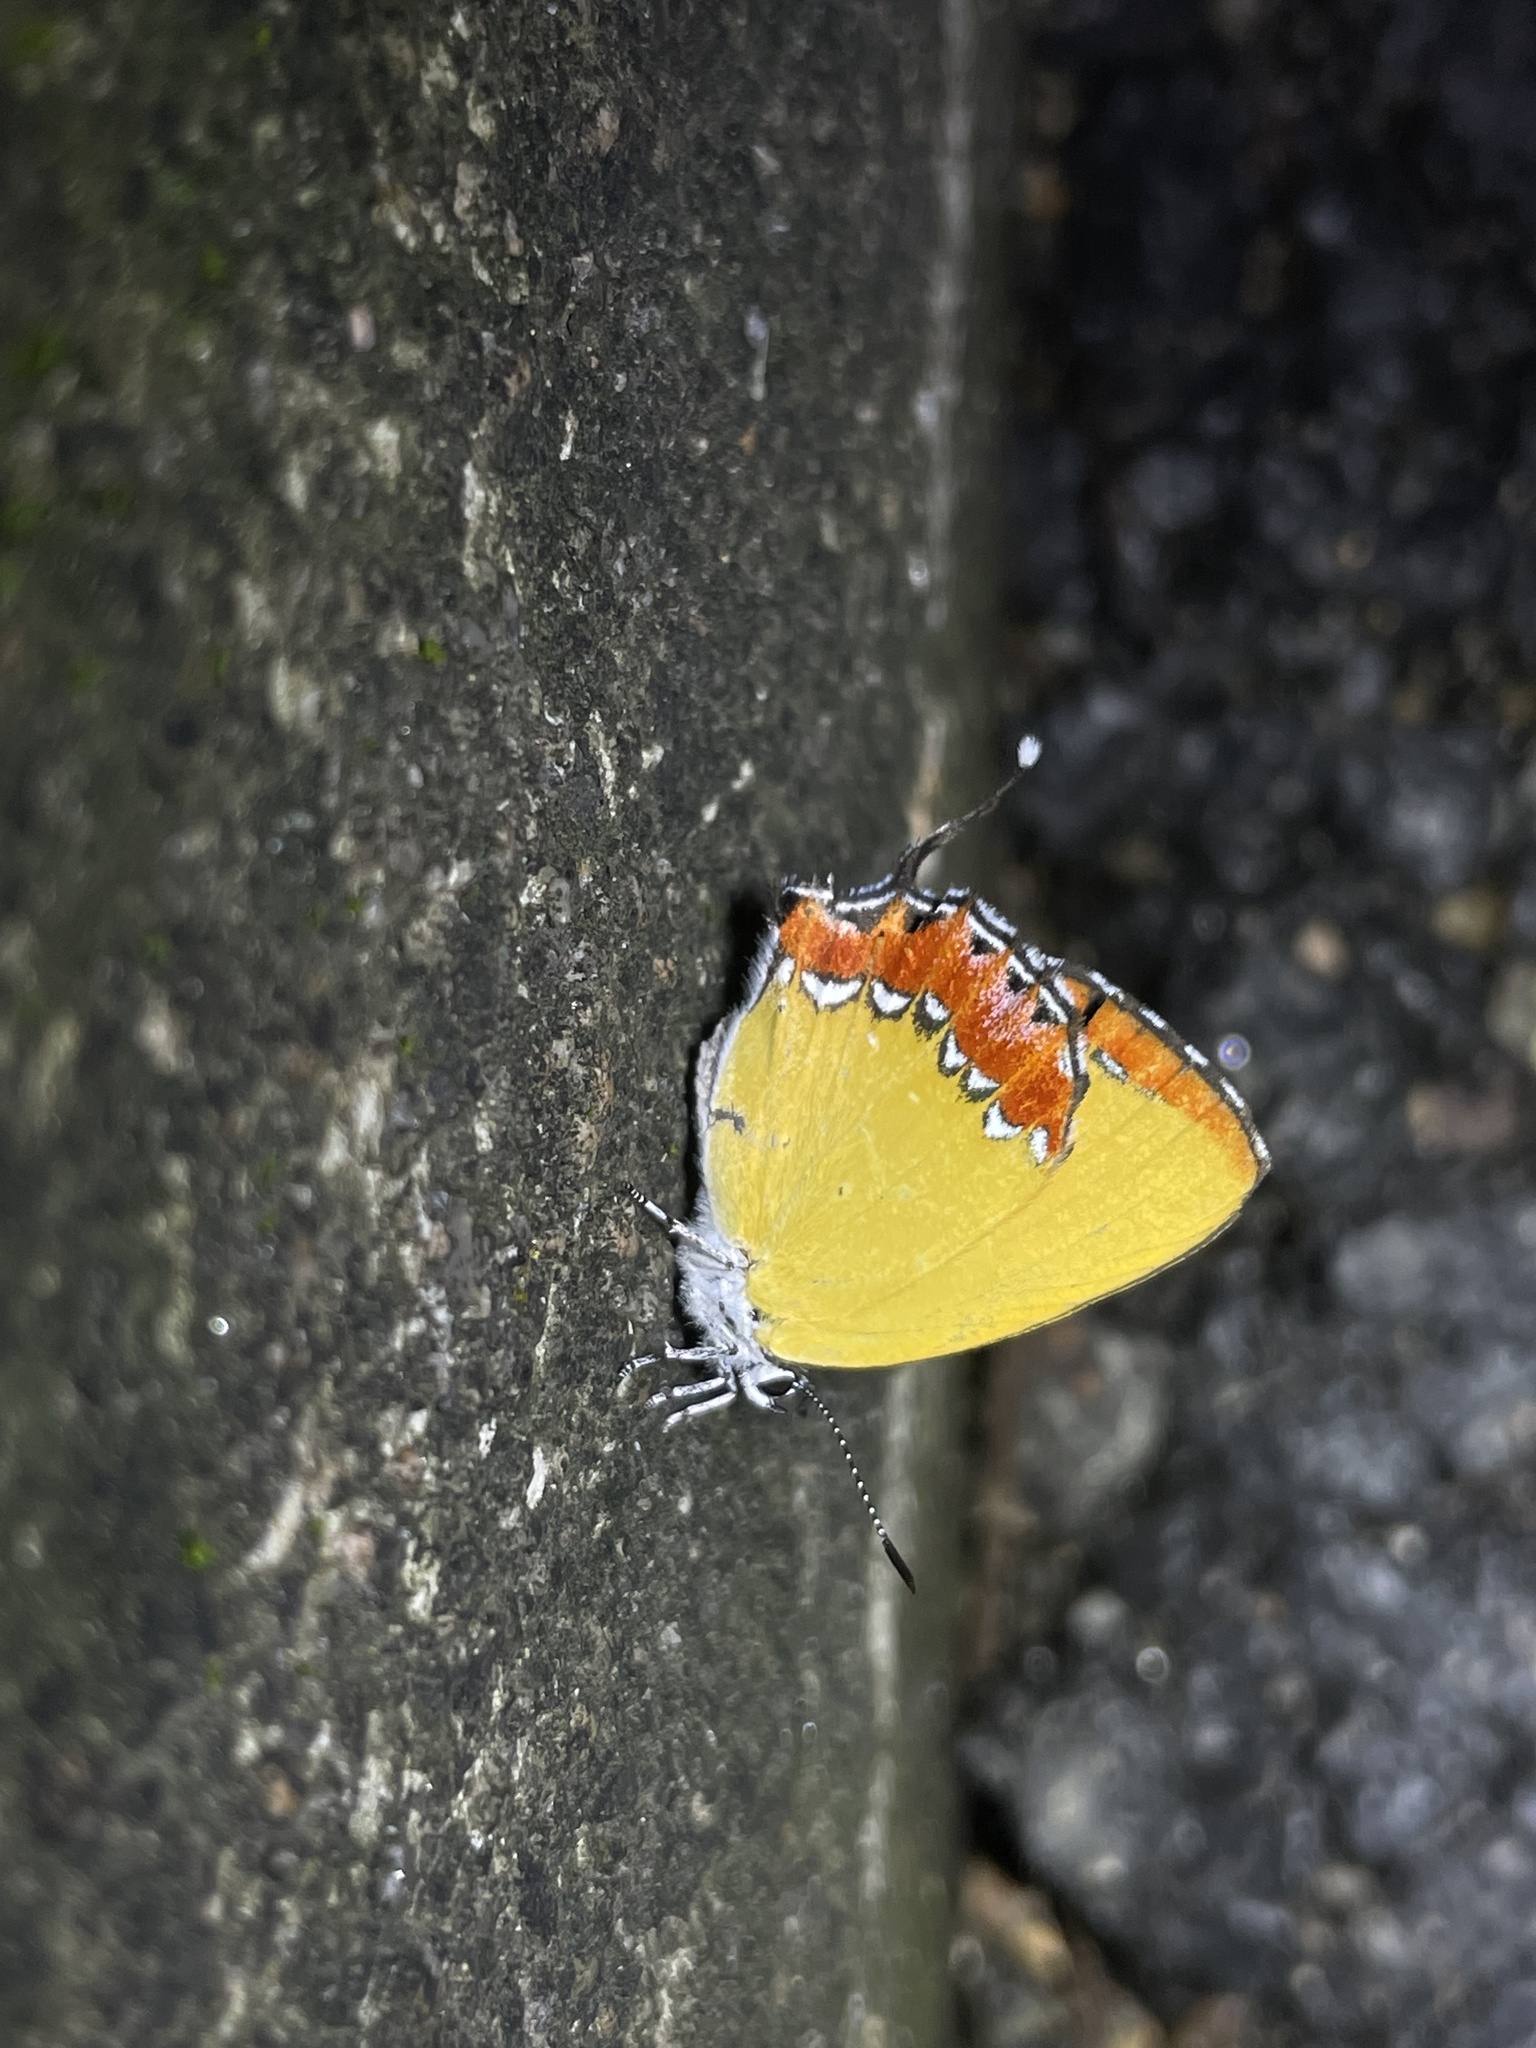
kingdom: Animalia
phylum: Arthropoda
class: Insecta
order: Lepidoptera
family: Lycaenidae
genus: Heliophorus
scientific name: Heliophorus epicles
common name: Purple sapphire
